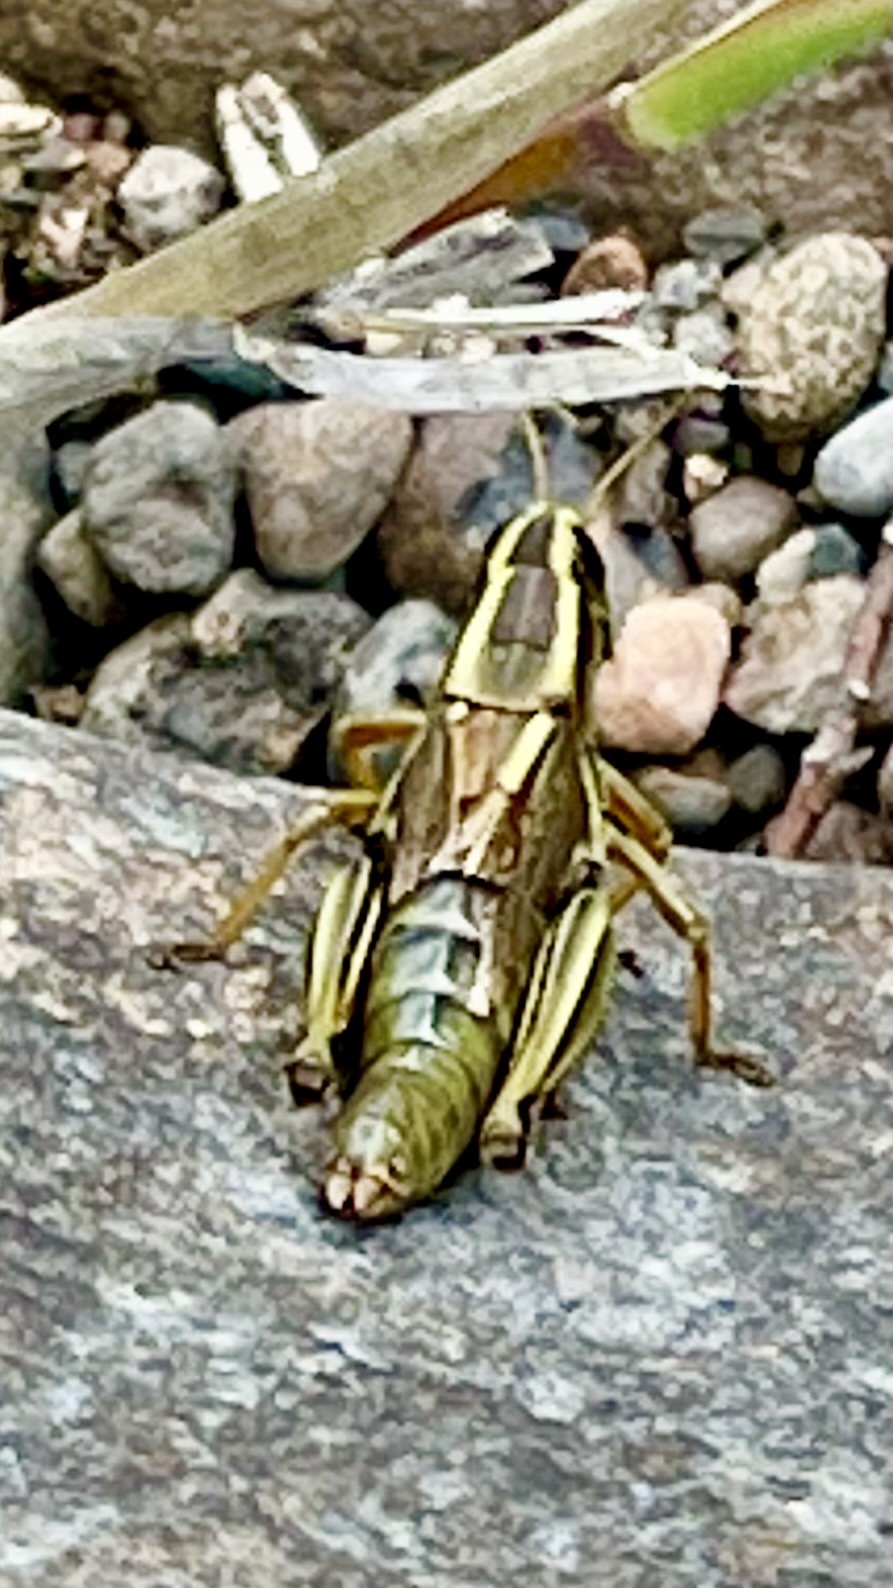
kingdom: Animalia
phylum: Arthropoda
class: Insecta
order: Orthoptera
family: Acrididae
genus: Melanoplus
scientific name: Melanoplus bivittatus
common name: Two-striped grasshopper
